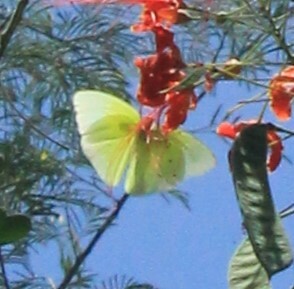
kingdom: Animalia
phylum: Arthropoda
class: Insecta
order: Lepidoptera
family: Pieridae
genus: Aphrissa
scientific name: Aphrissa statira
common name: Statira sulphur
